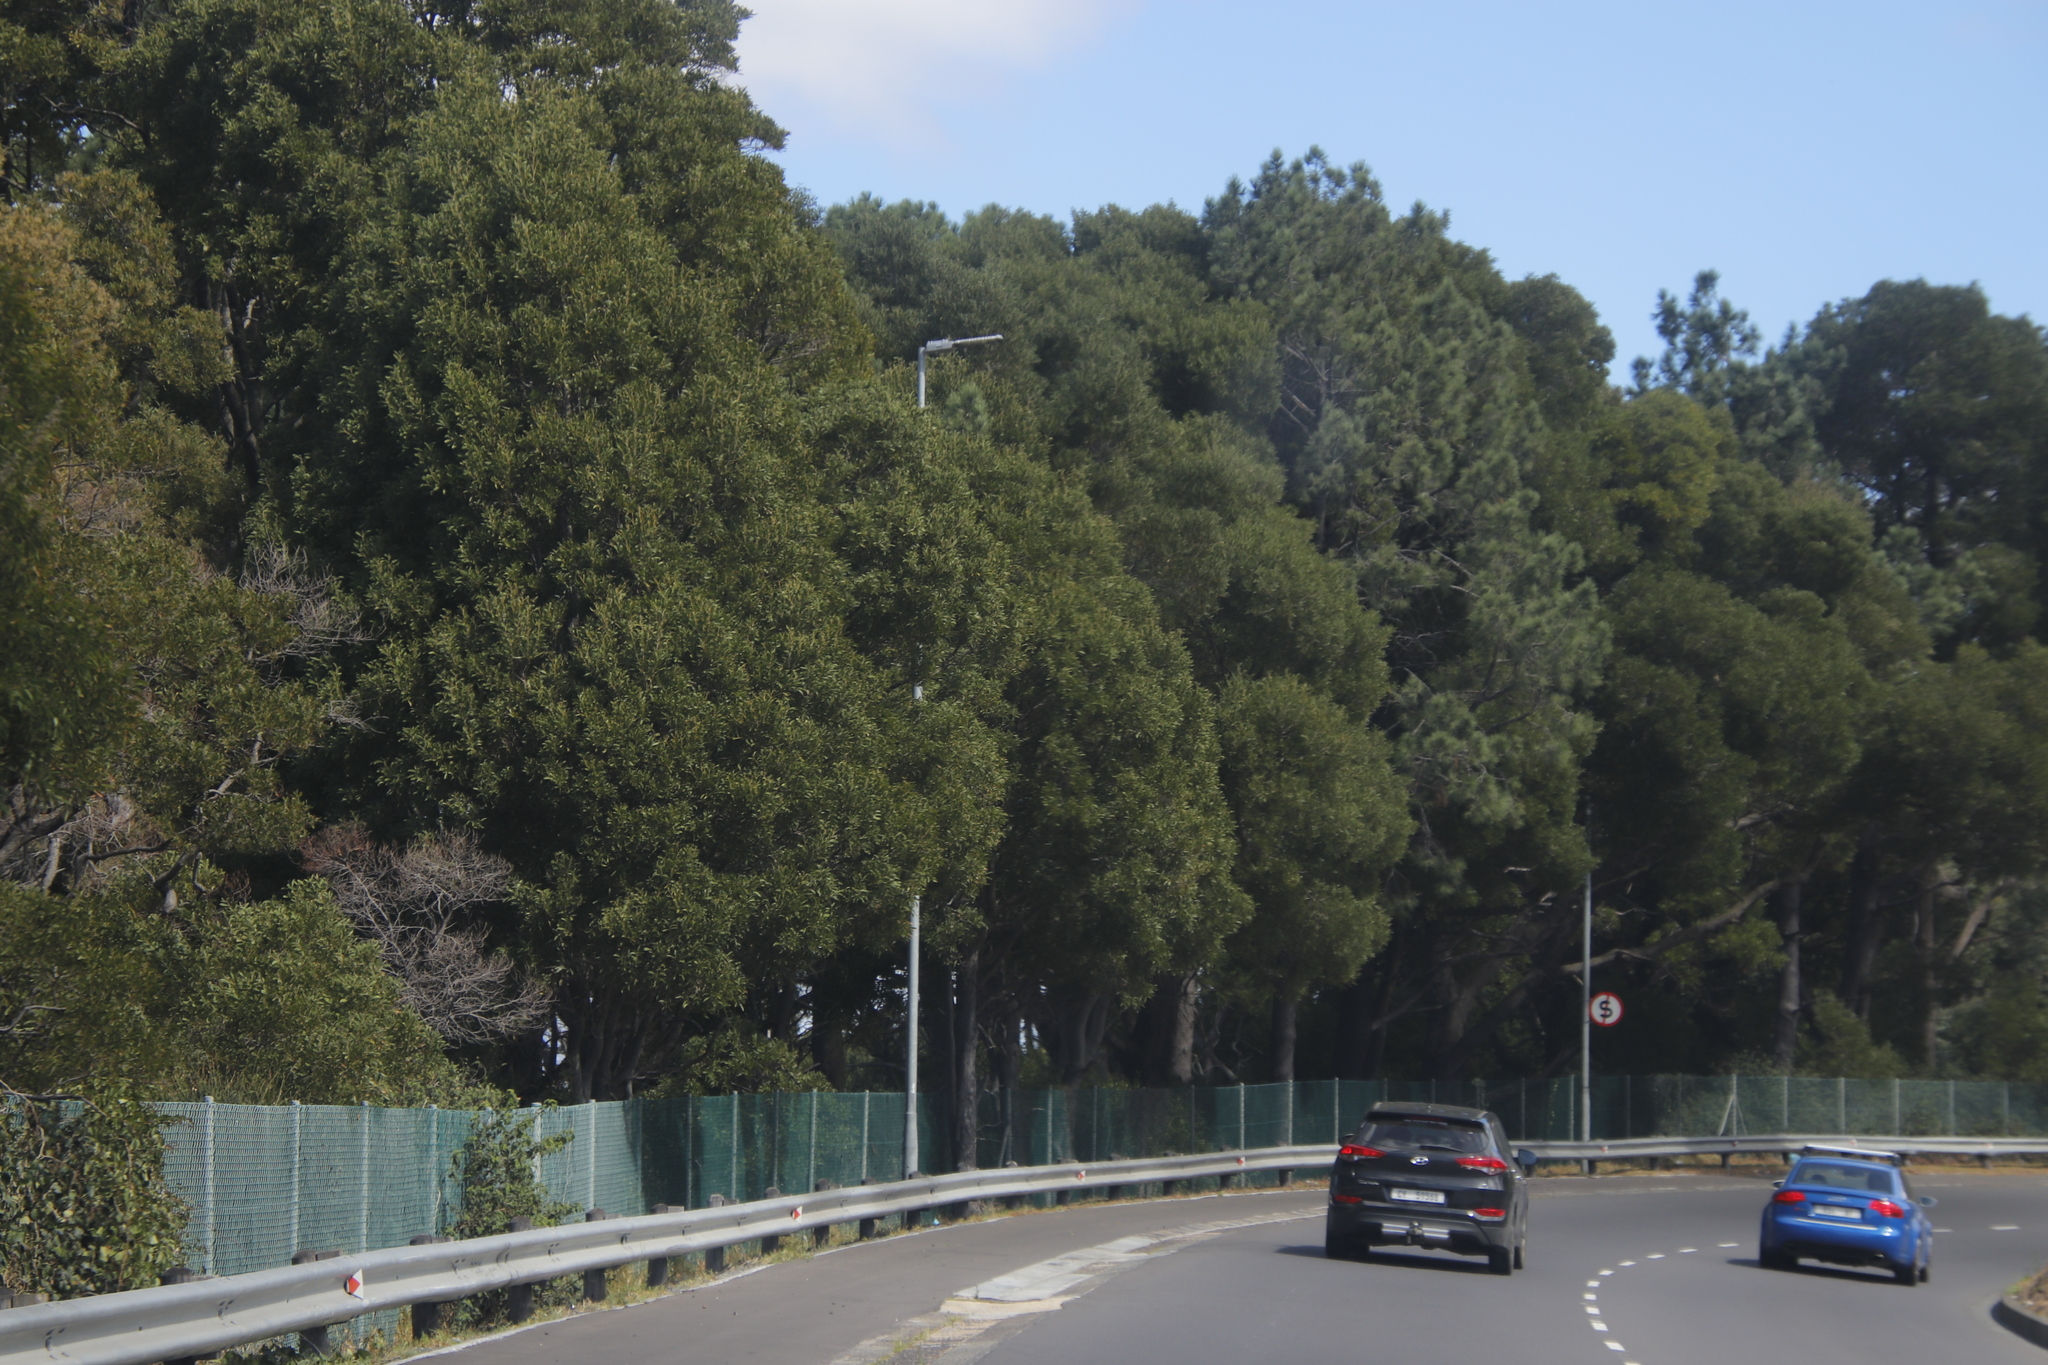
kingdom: Plantae
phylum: Tracheophyta
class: Magnoliopsida
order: Fabales
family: Fabaceae
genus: Acacia
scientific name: Acacia melanoxylon
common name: Blackwood
